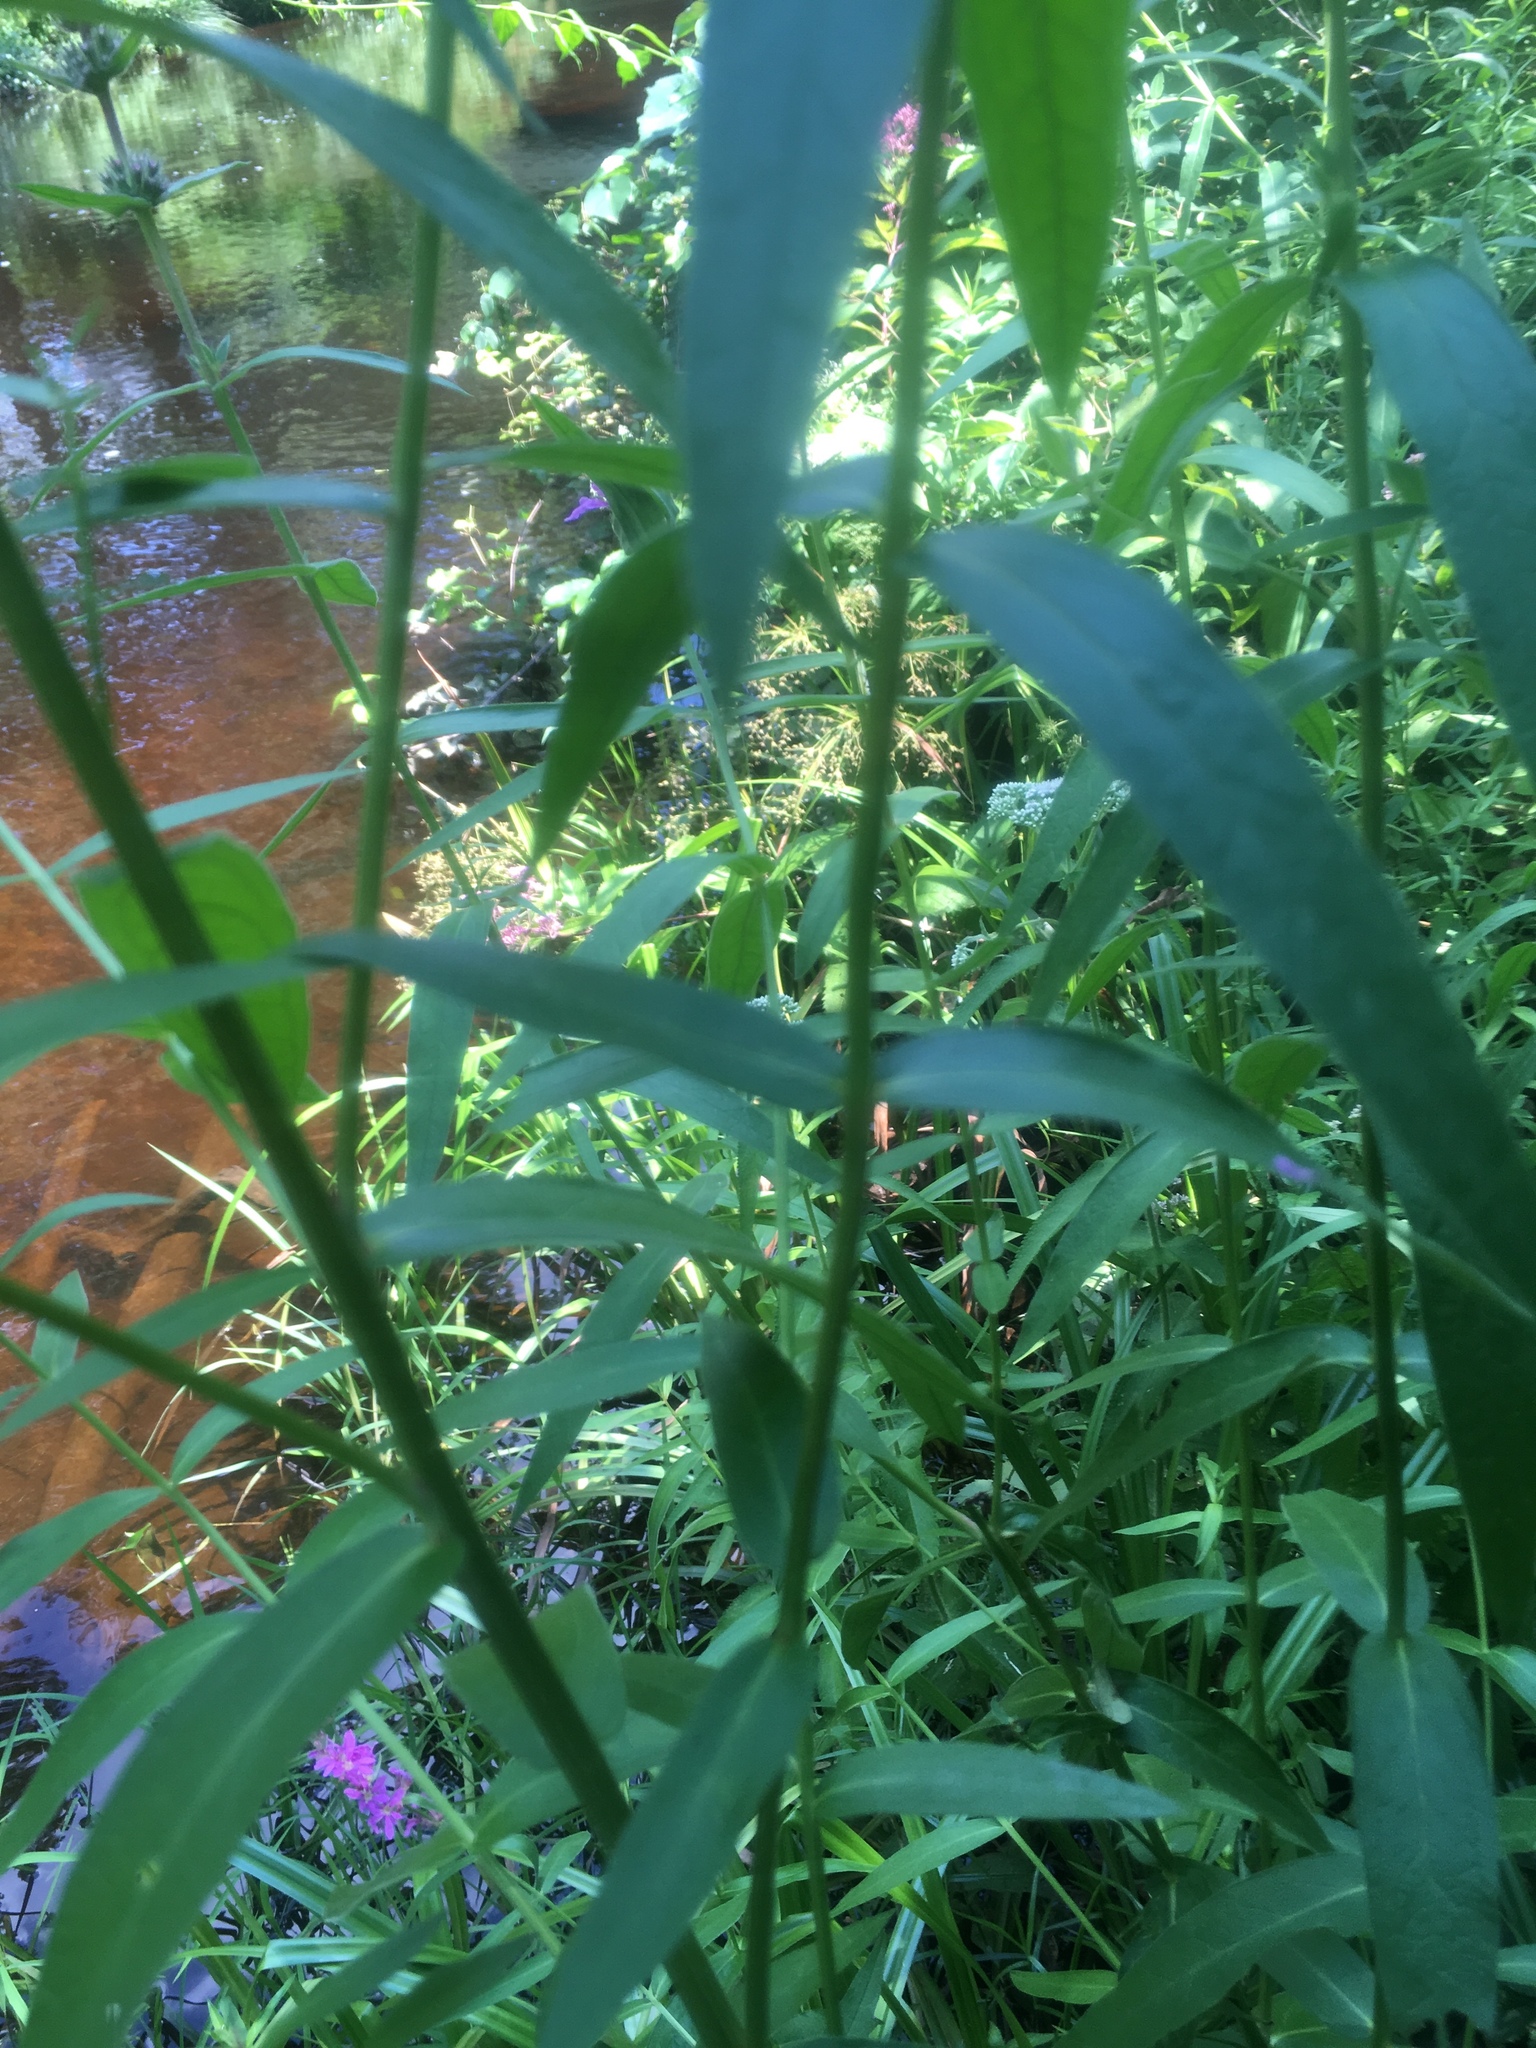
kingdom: Plantae
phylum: Tracheophyta
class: Magnoliopsida
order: Myrtales
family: Lythraceae
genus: Lythrum
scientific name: Lythrum salicaria
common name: Purple loosestrife
